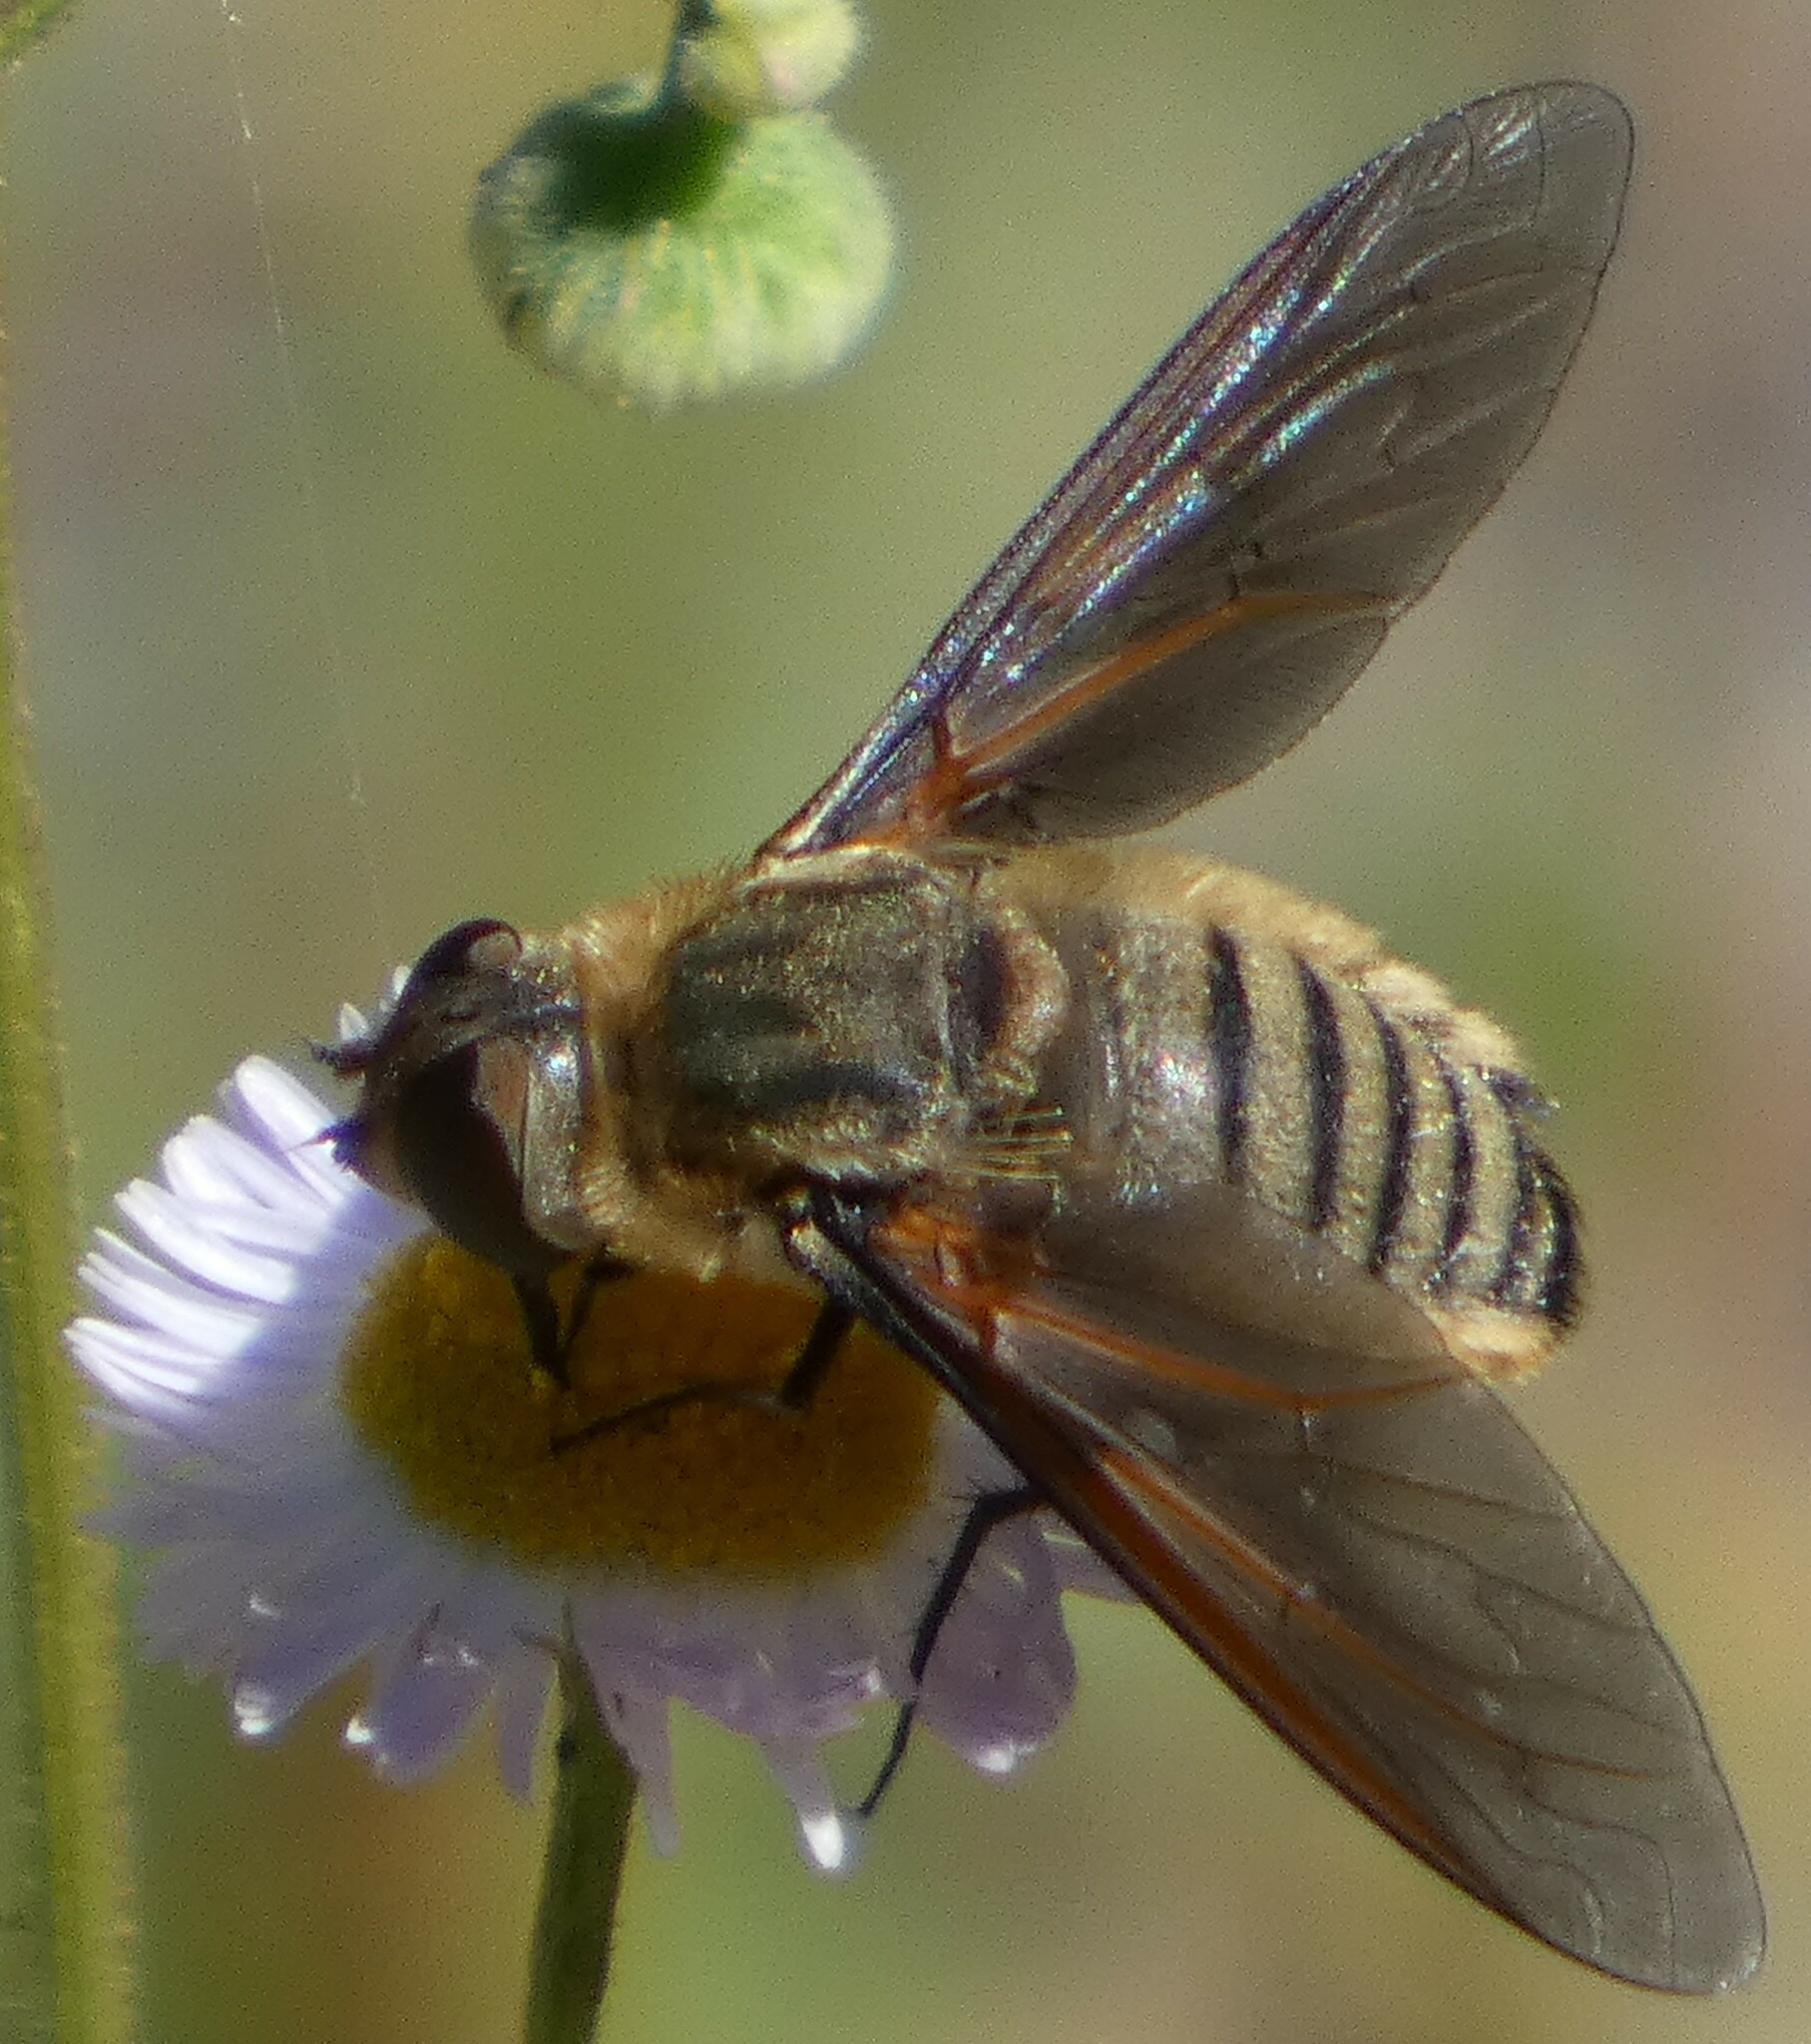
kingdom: Animalia
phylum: Arthropoda
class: Insecta
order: Diptera
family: Bombyliidae
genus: Poecilanthrax
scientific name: Poecilanthrax lucifer
